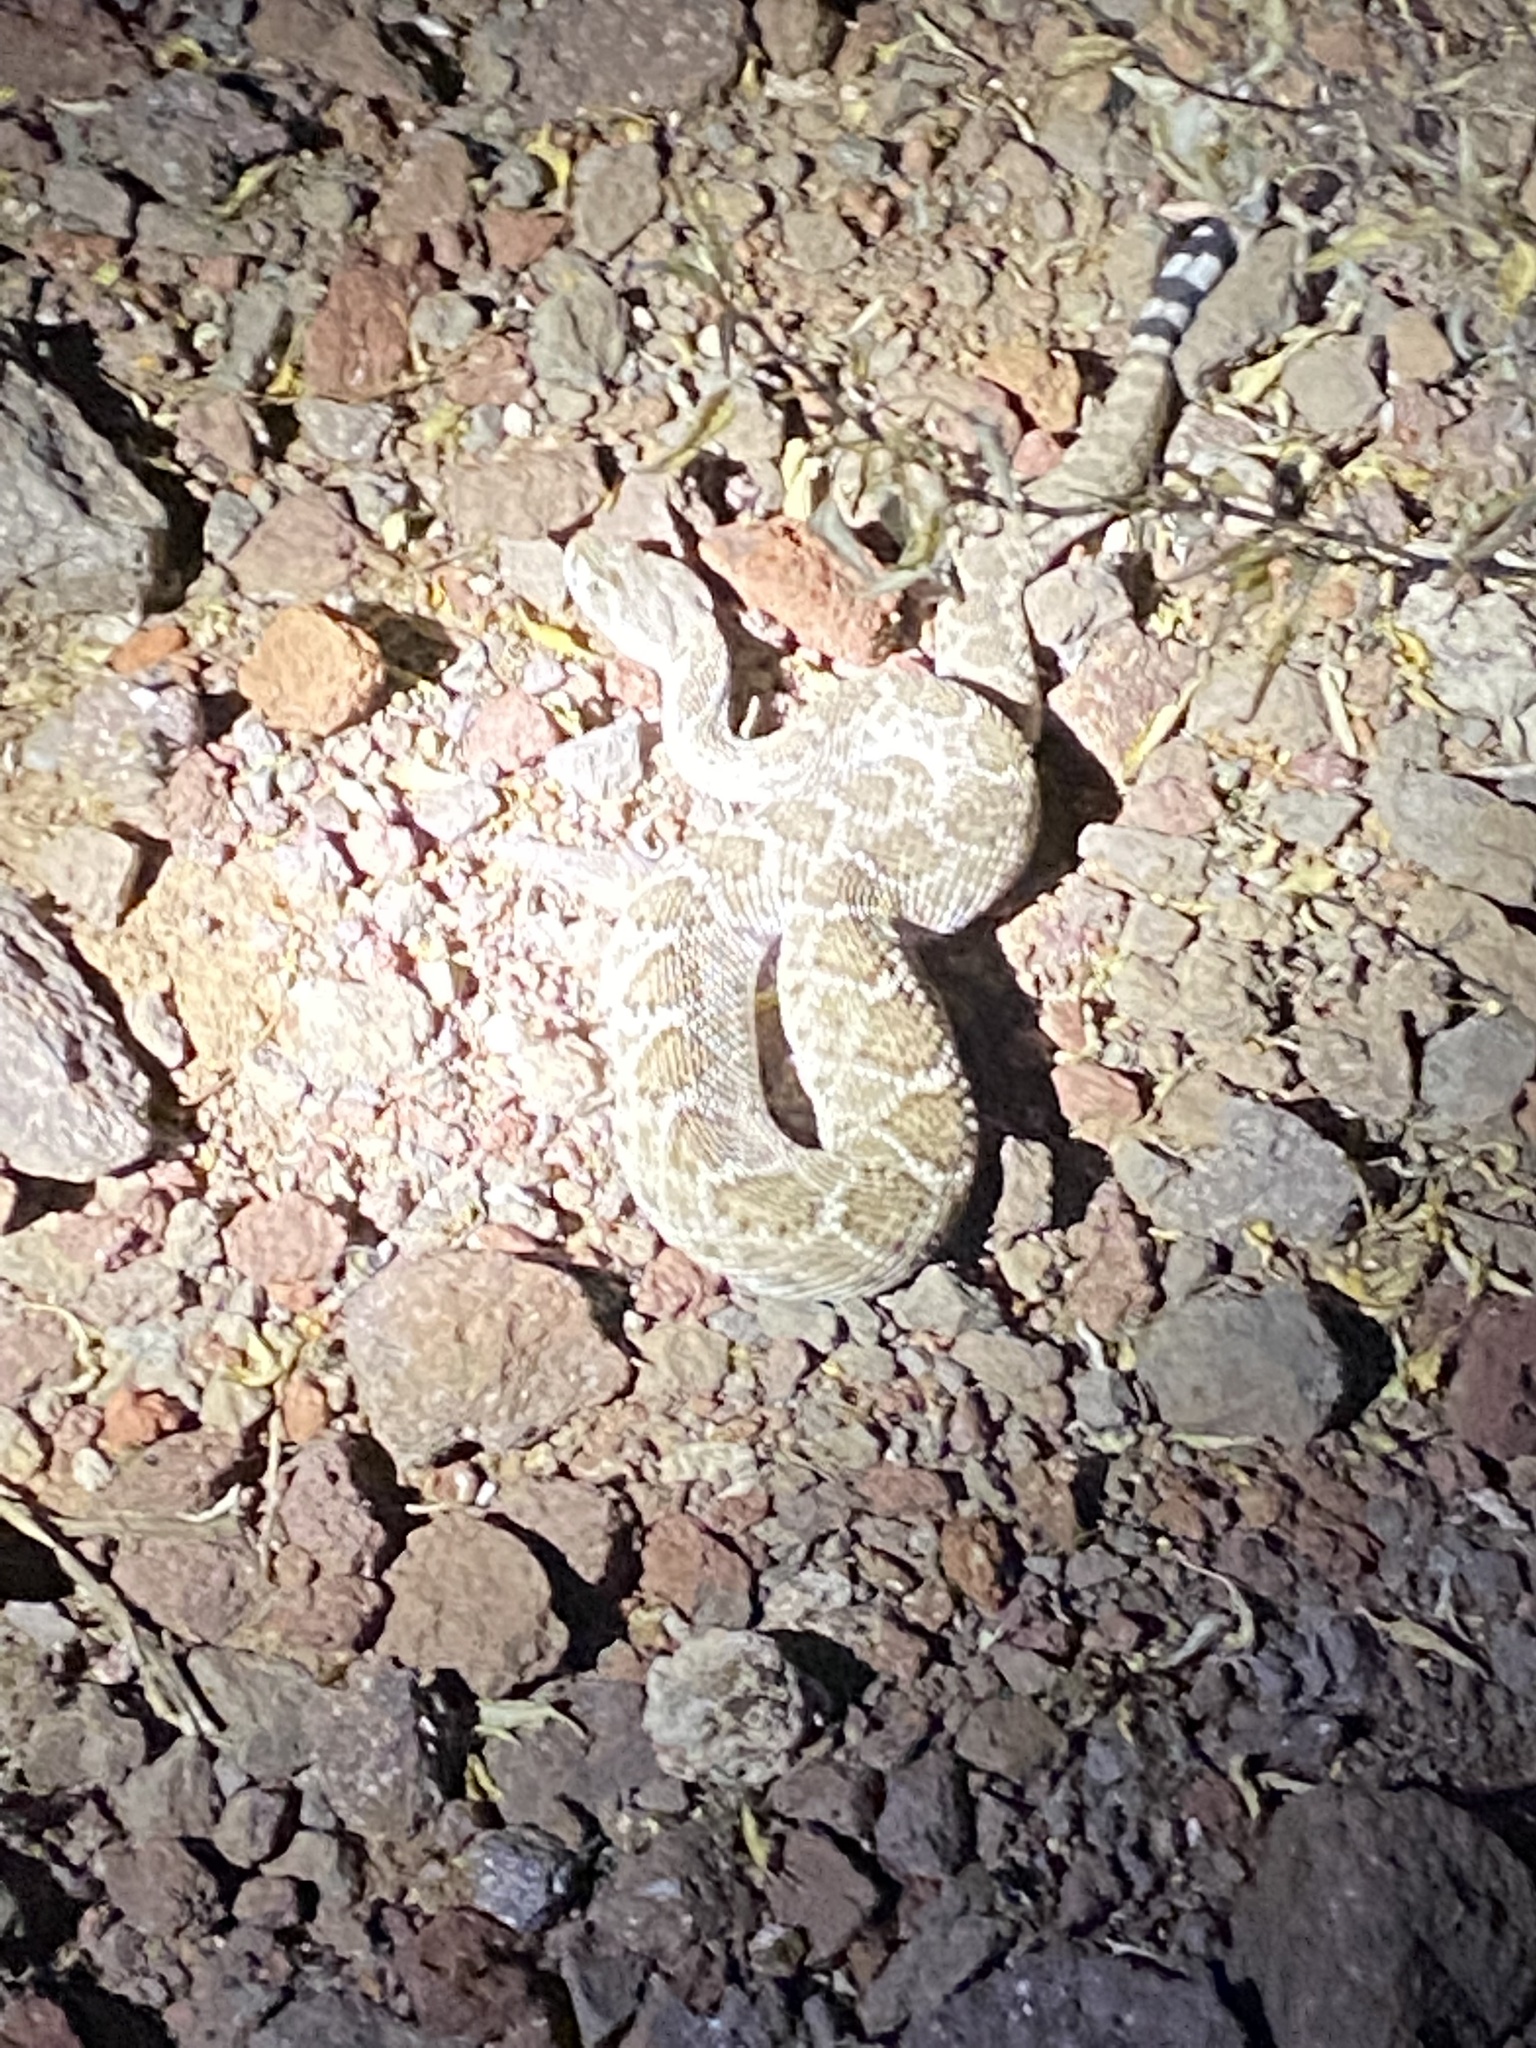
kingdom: Animalia
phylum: Chordata
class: Squamata
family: Viperidae
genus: Crotalus
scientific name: Crotalus atrox
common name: Western diamond-backed rattlesnake
